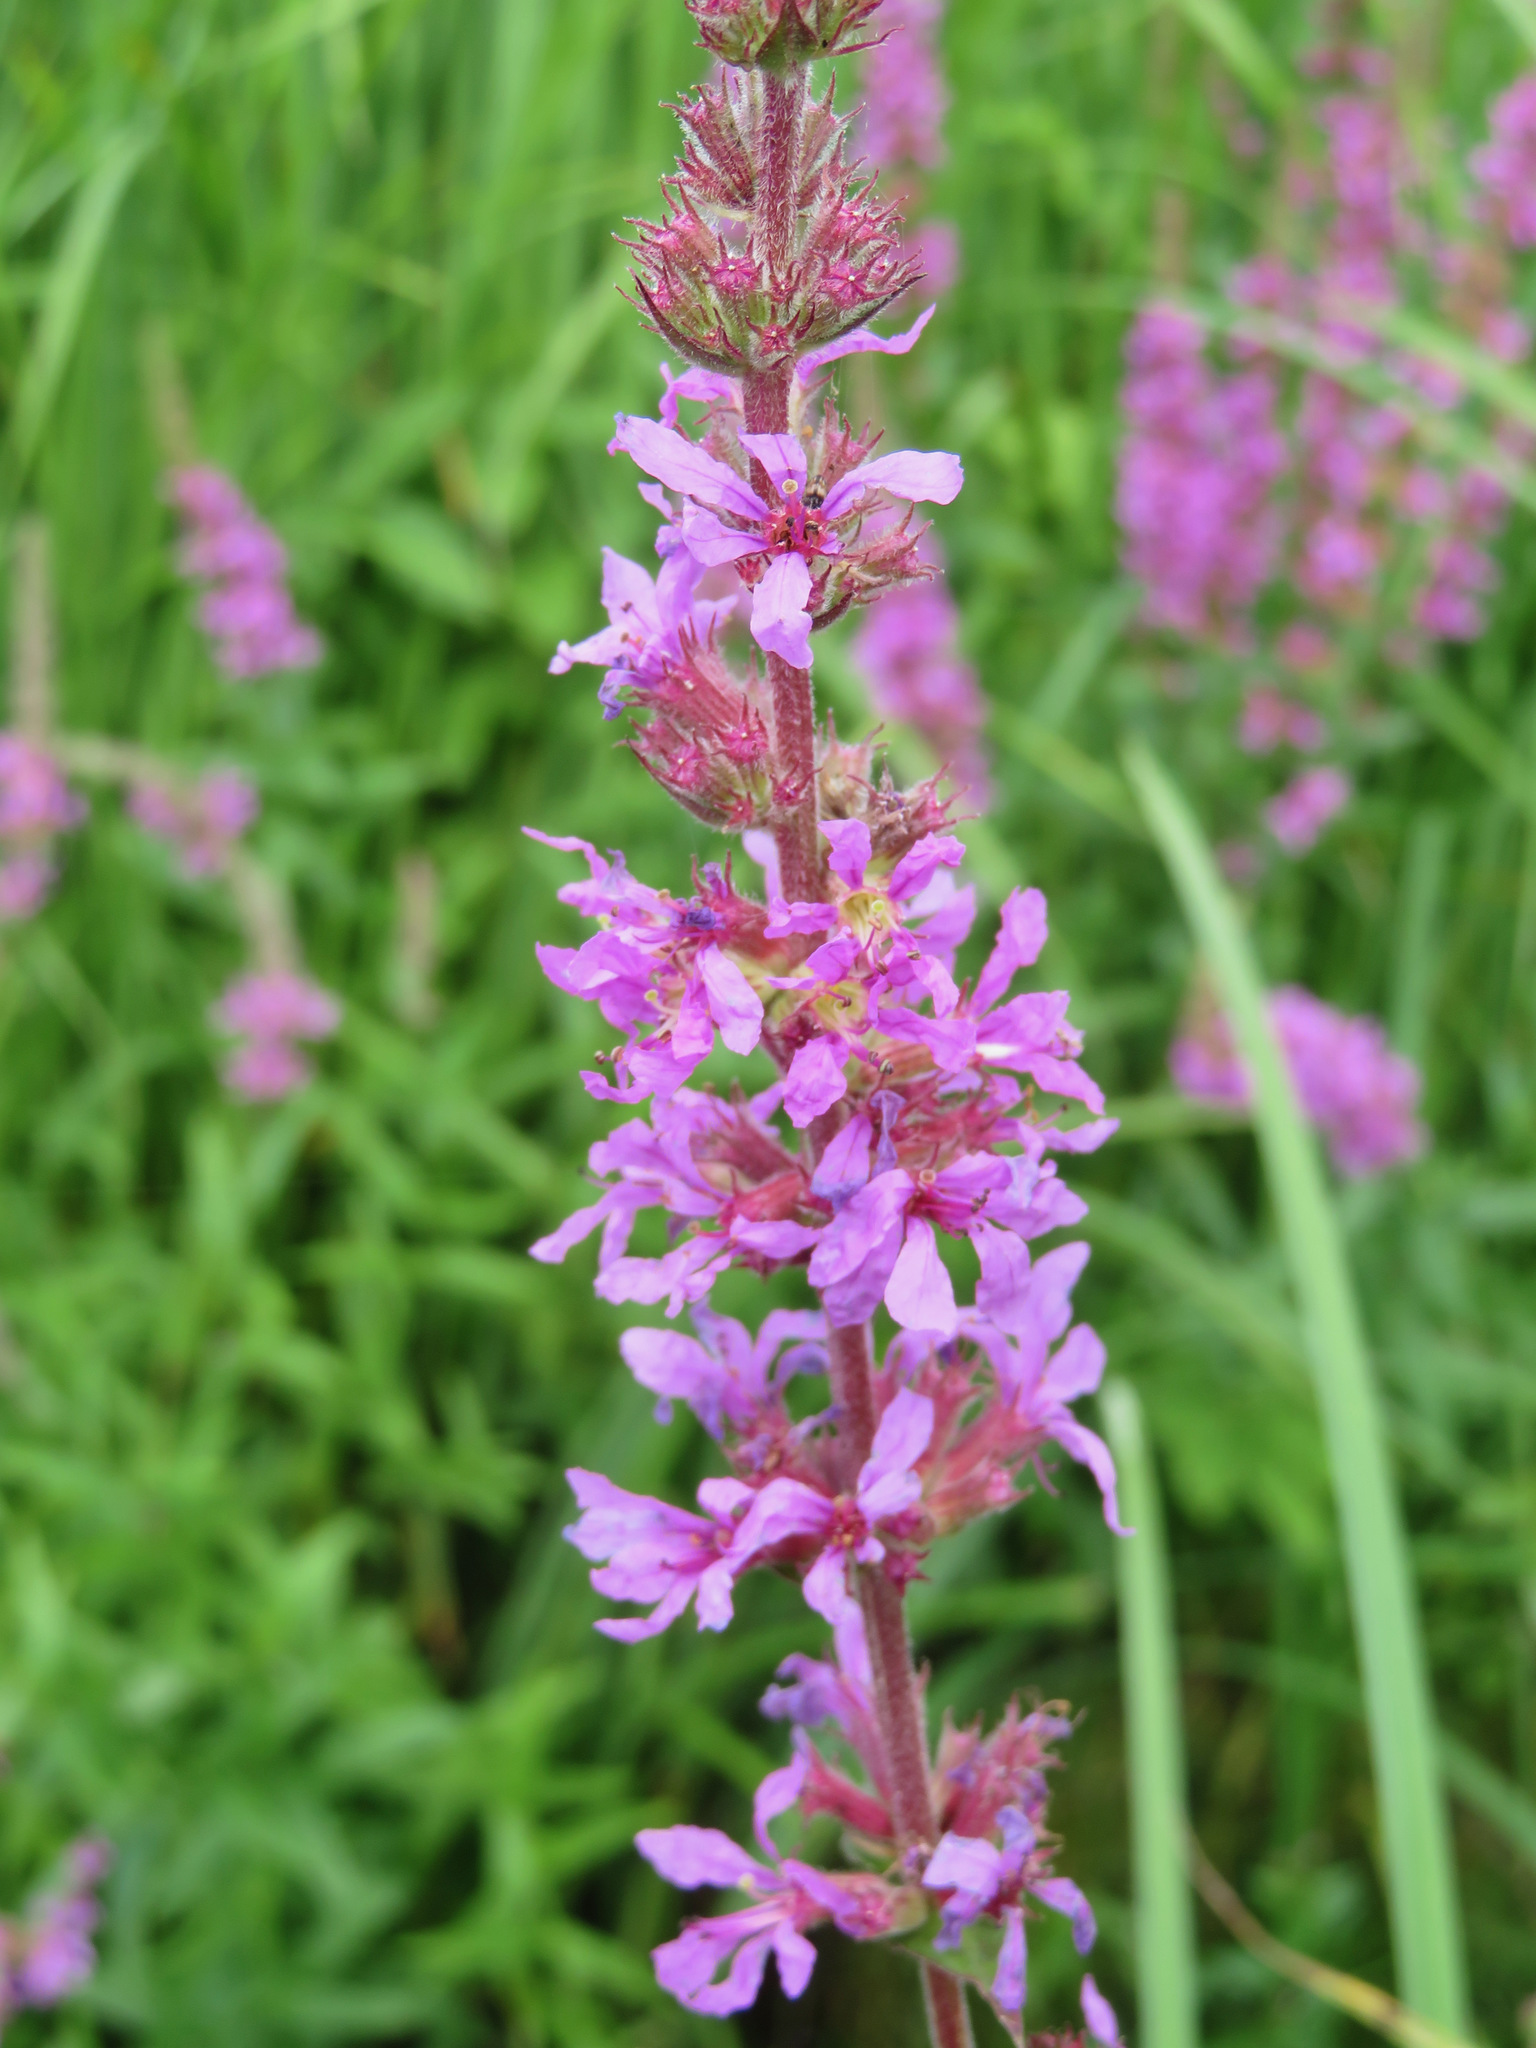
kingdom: Plantae
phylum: Tracheophyta
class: Magnoliopsida
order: Myrtales
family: Lythraceae
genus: Lythrum
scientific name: Lythrum salicaria
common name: Purple loosestrife
